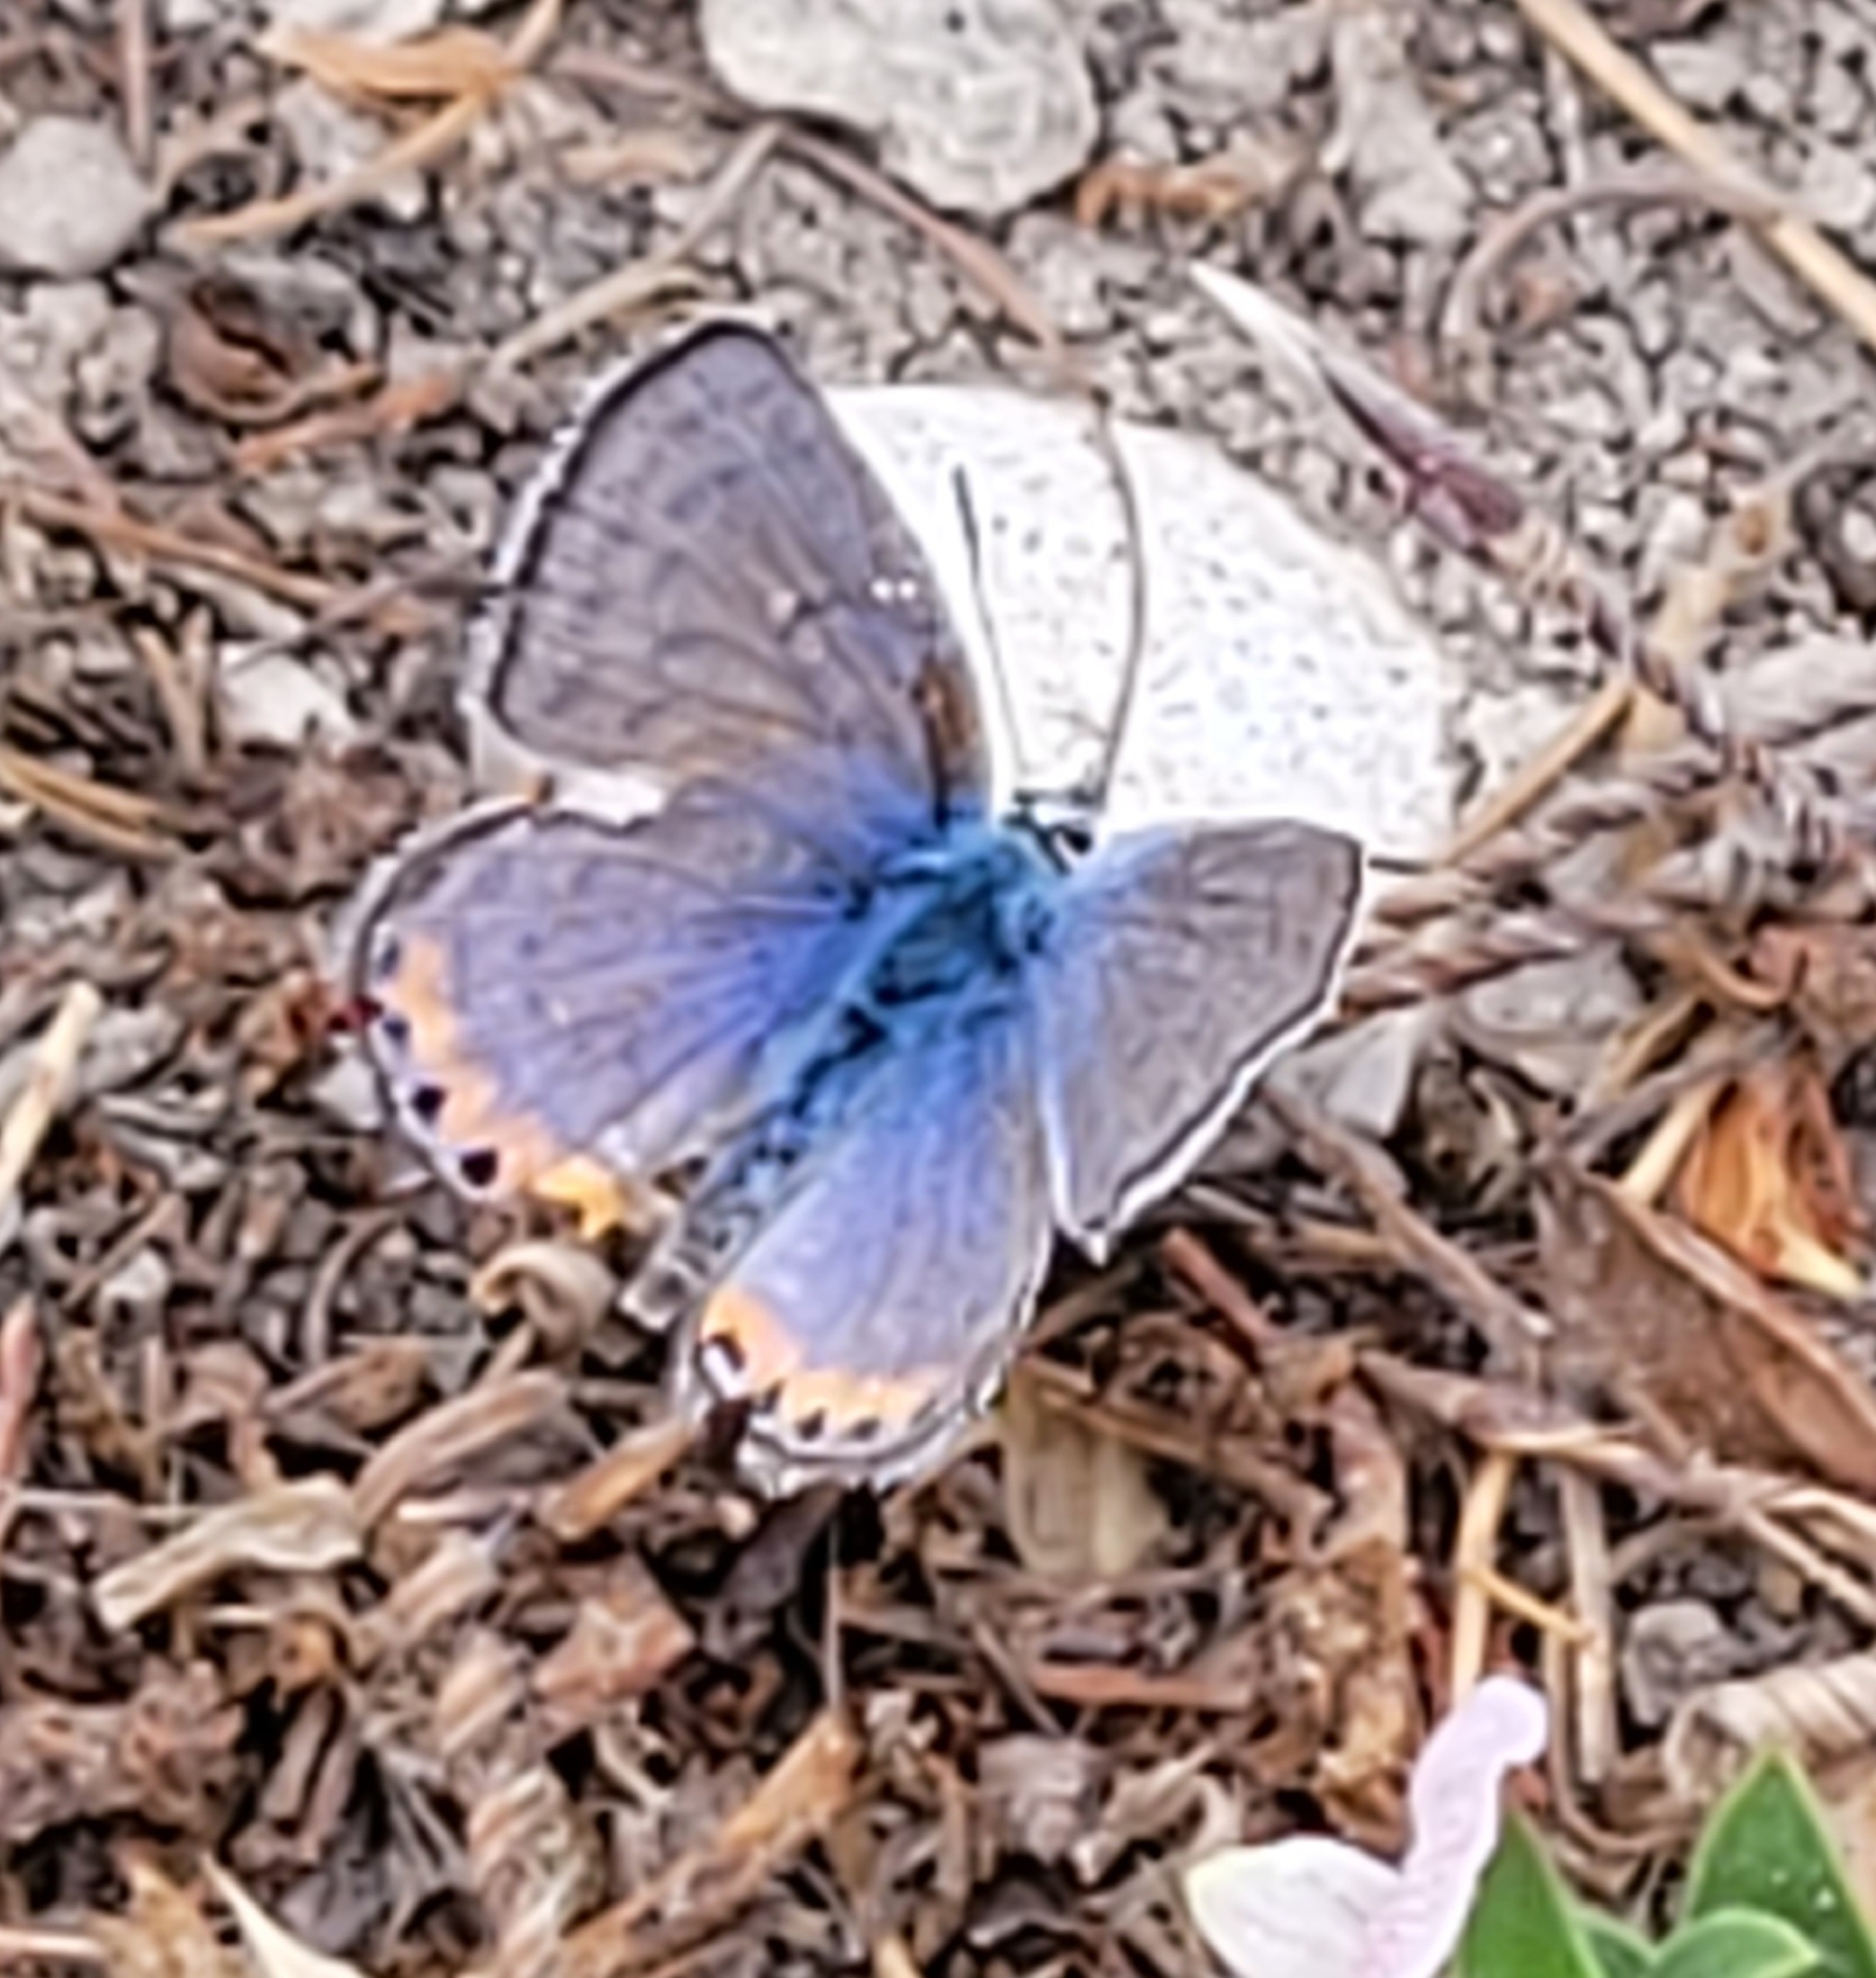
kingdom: Animalia
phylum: Arthropoda
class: Insecta
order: Lepidoptera
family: Lycaenidae
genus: Icaricia
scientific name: Icaricia acmon
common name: Acmon blue
